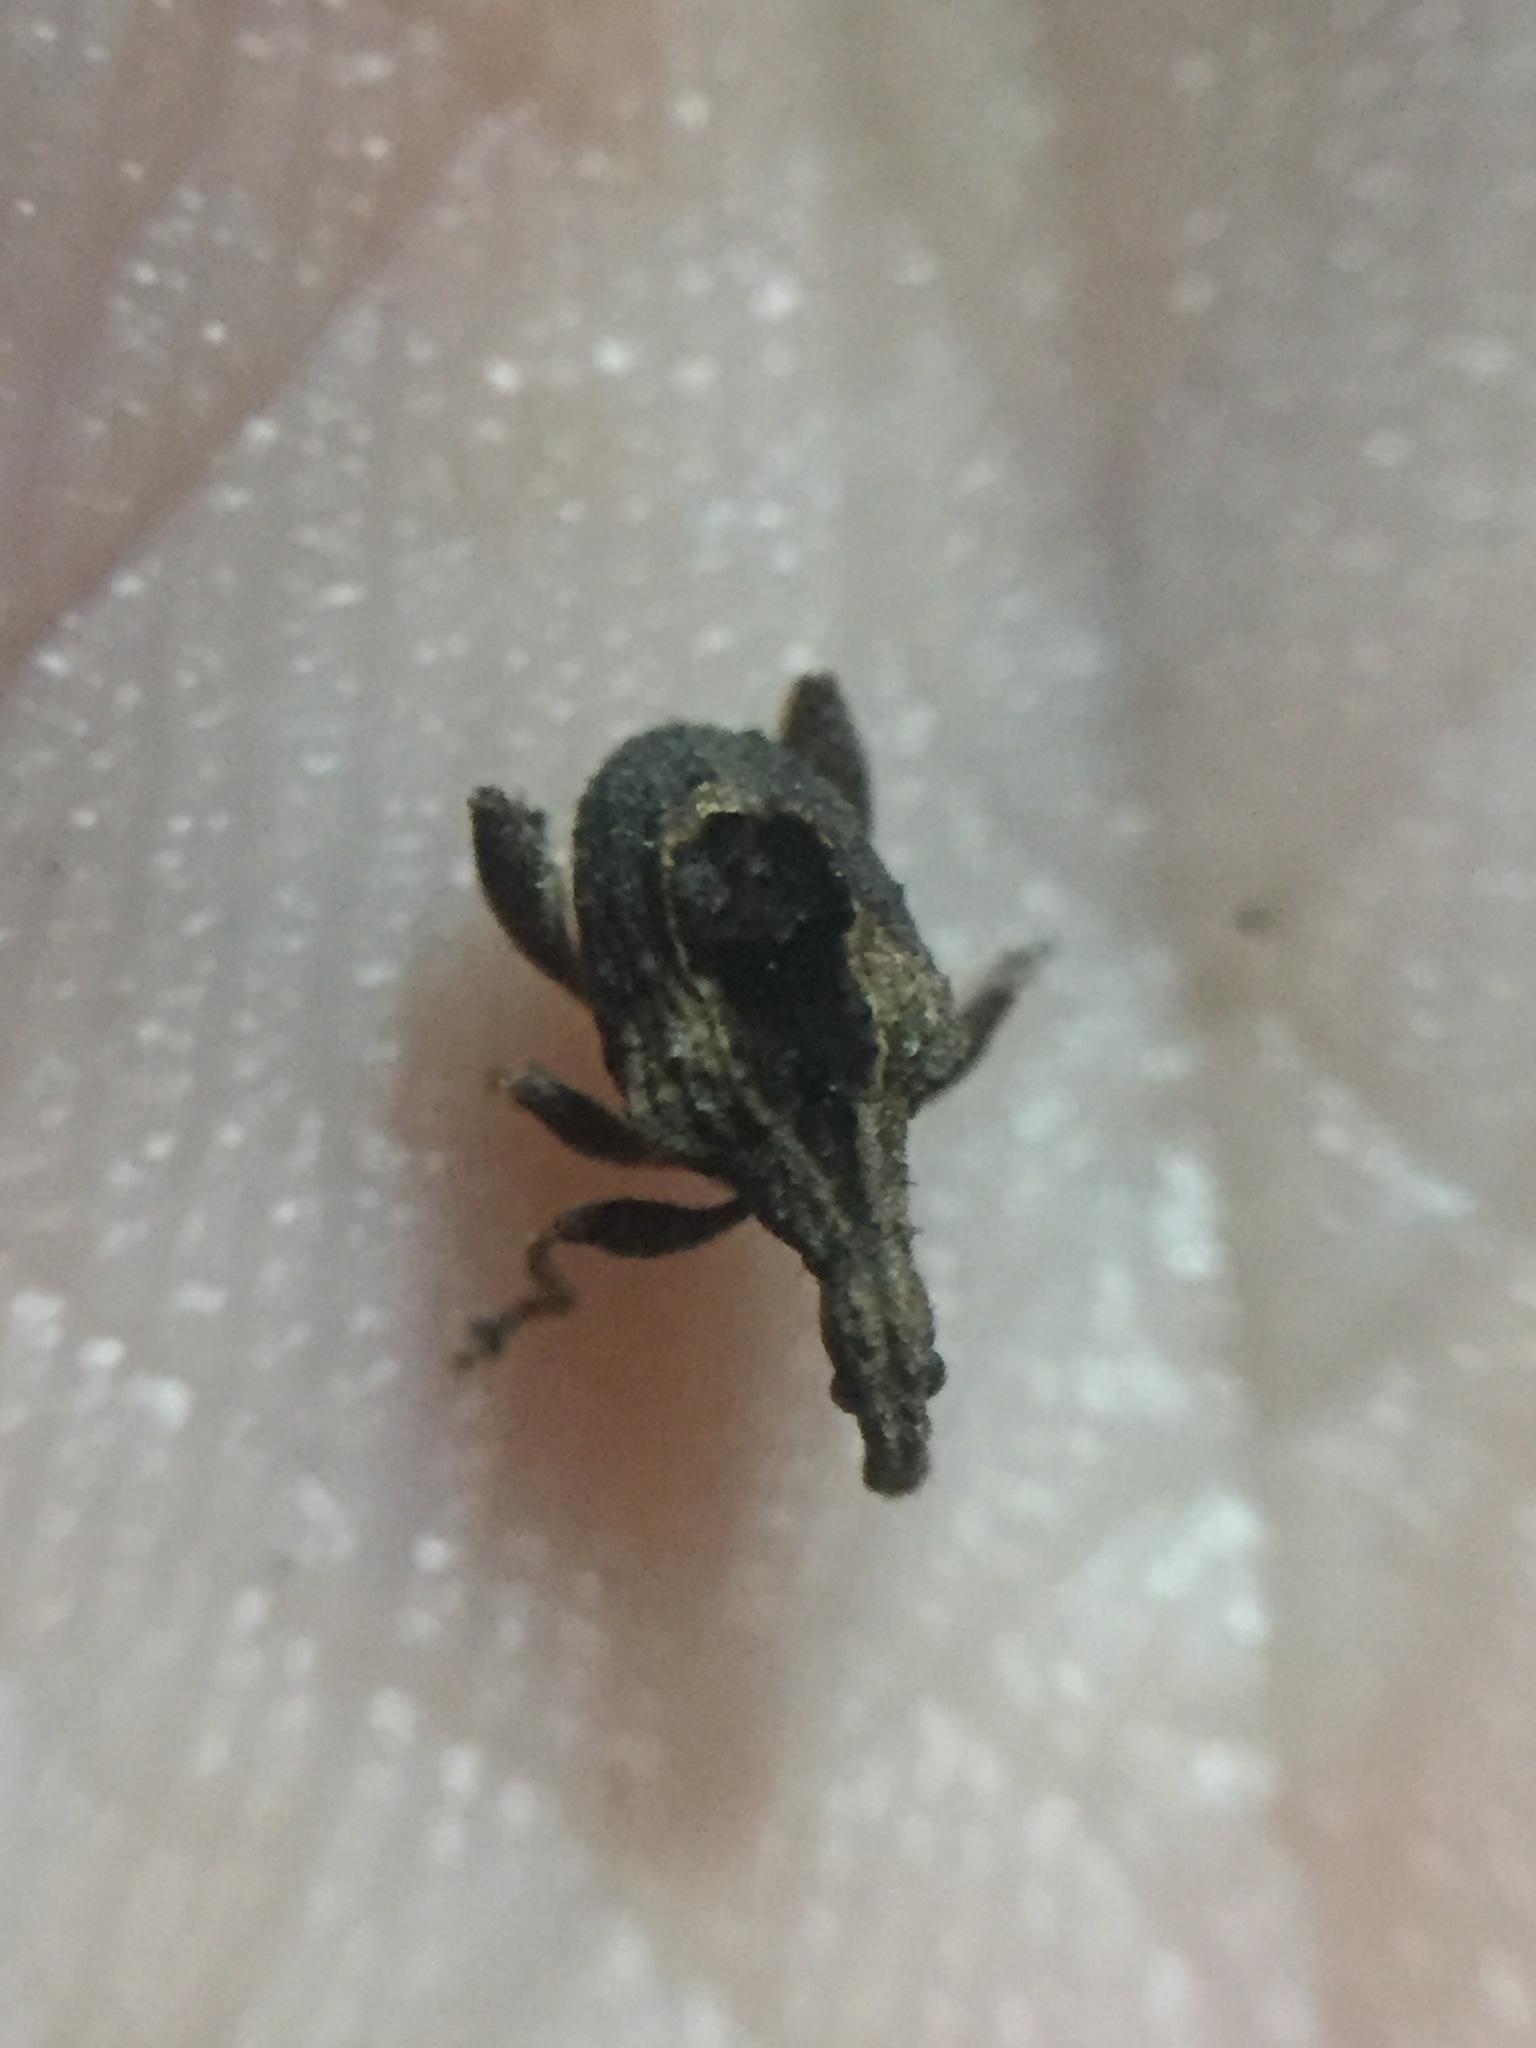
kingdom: Animalia
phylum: Arthropoda
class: Insecta
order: Coleoptera
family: Curculionidae
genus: Stephanorrhynchus
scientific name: Stephanorrhynchus crassus
